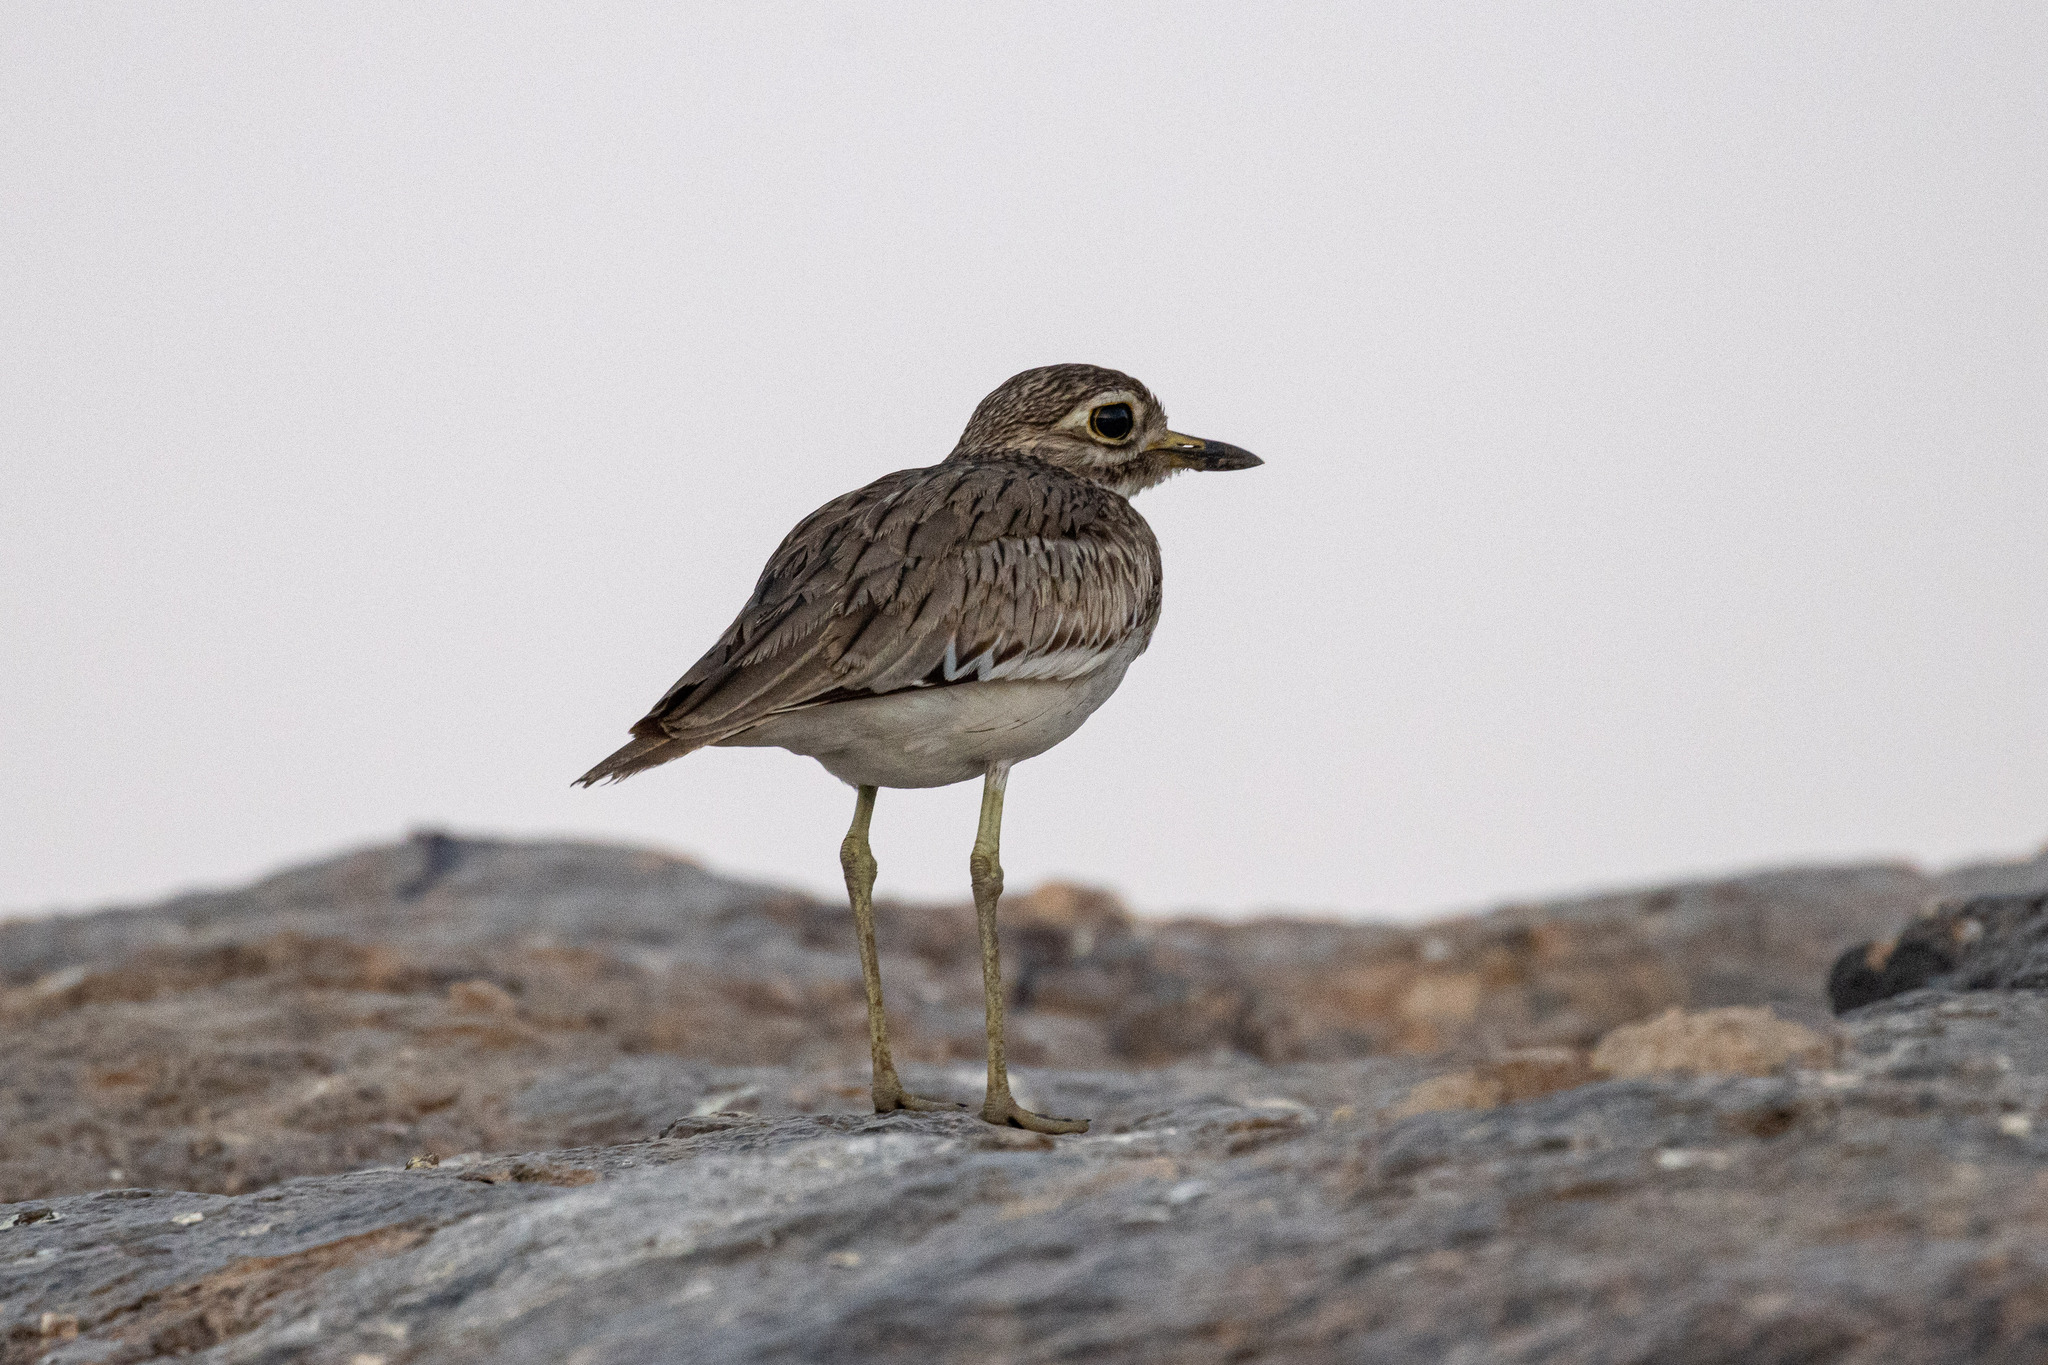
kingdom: Animalia
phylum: Chordata
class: Aves
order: Charadriiformes
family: Burhinidae
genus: Burhinus
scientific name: Burhinus senegalensis
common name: Senegal thick-knee
